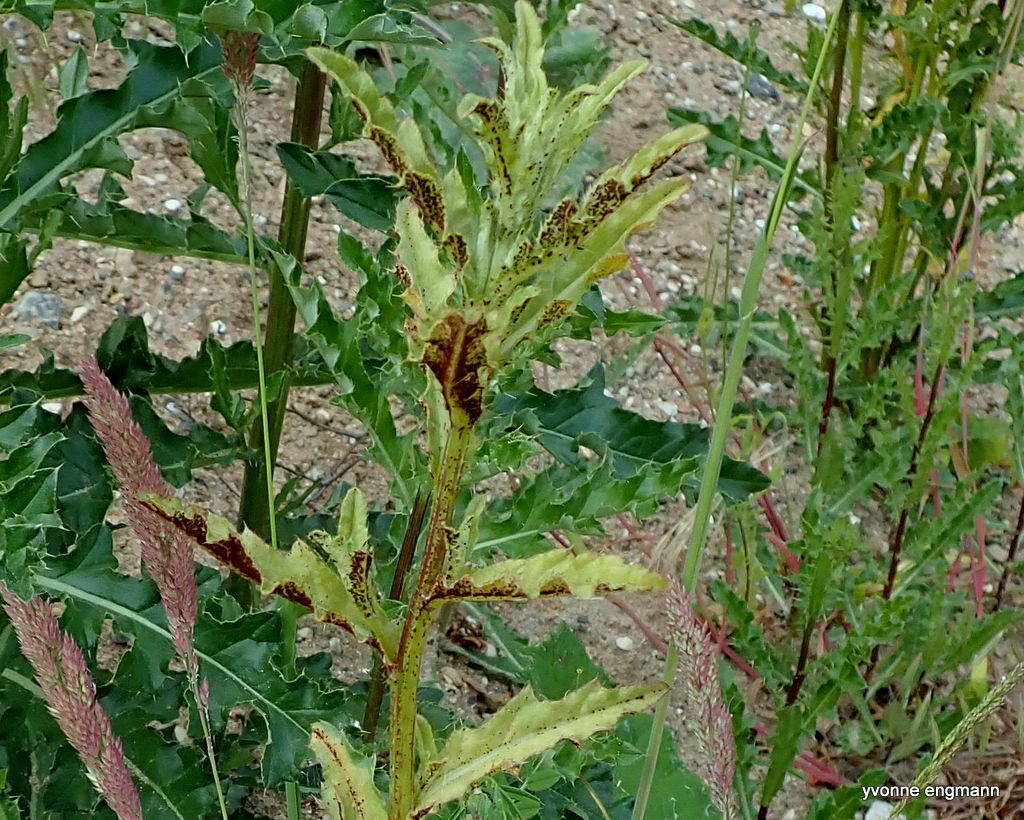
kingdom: Fungi
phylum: Basidiomycota
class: Pucciniomycetes
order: Pucciniales
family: Pucciniaceae
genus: Puccinia
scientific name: Puccinia suaveolens
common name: Thistle rust
